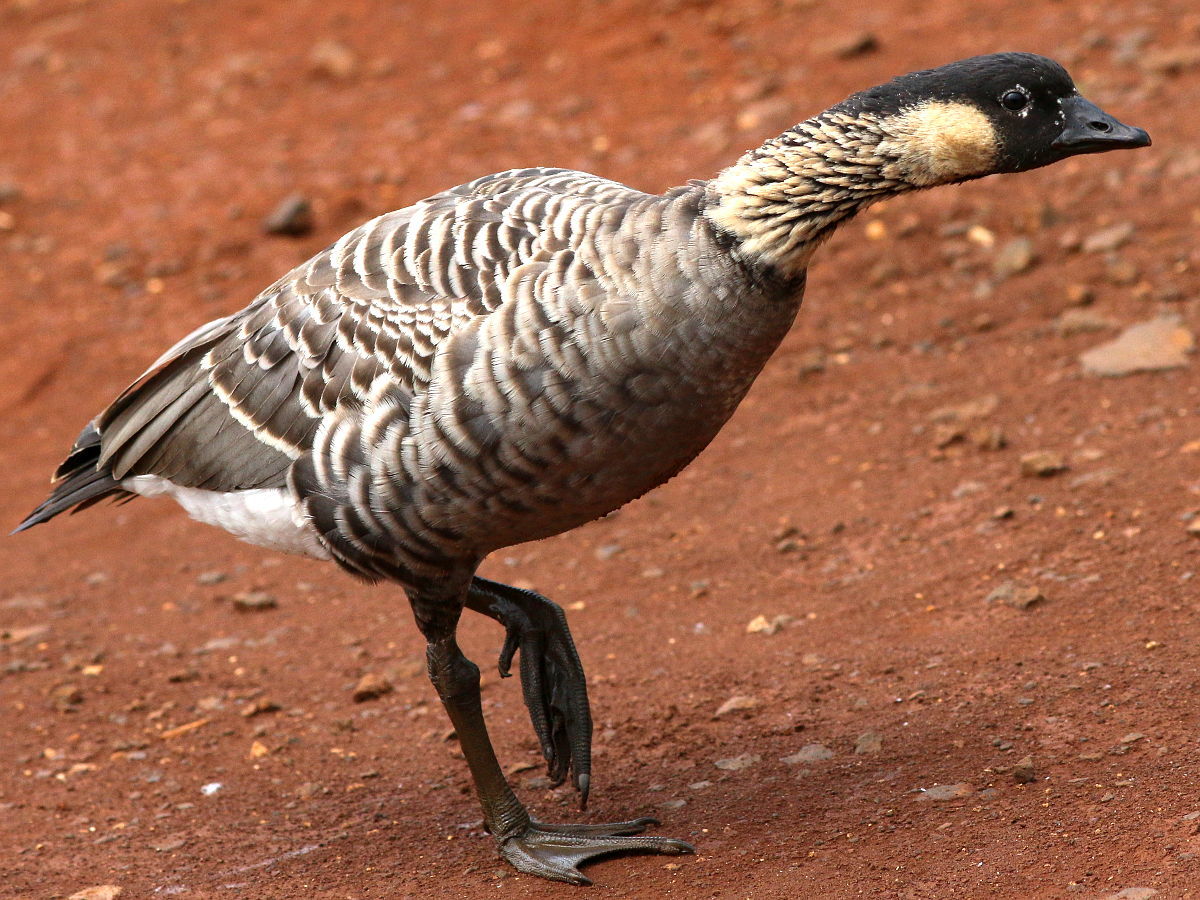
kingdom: Animalia
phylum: Chordata
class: Aves
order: Anseriformes
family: Anatidae
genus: Branta
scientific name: Branta sandvicensis
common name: Nene
